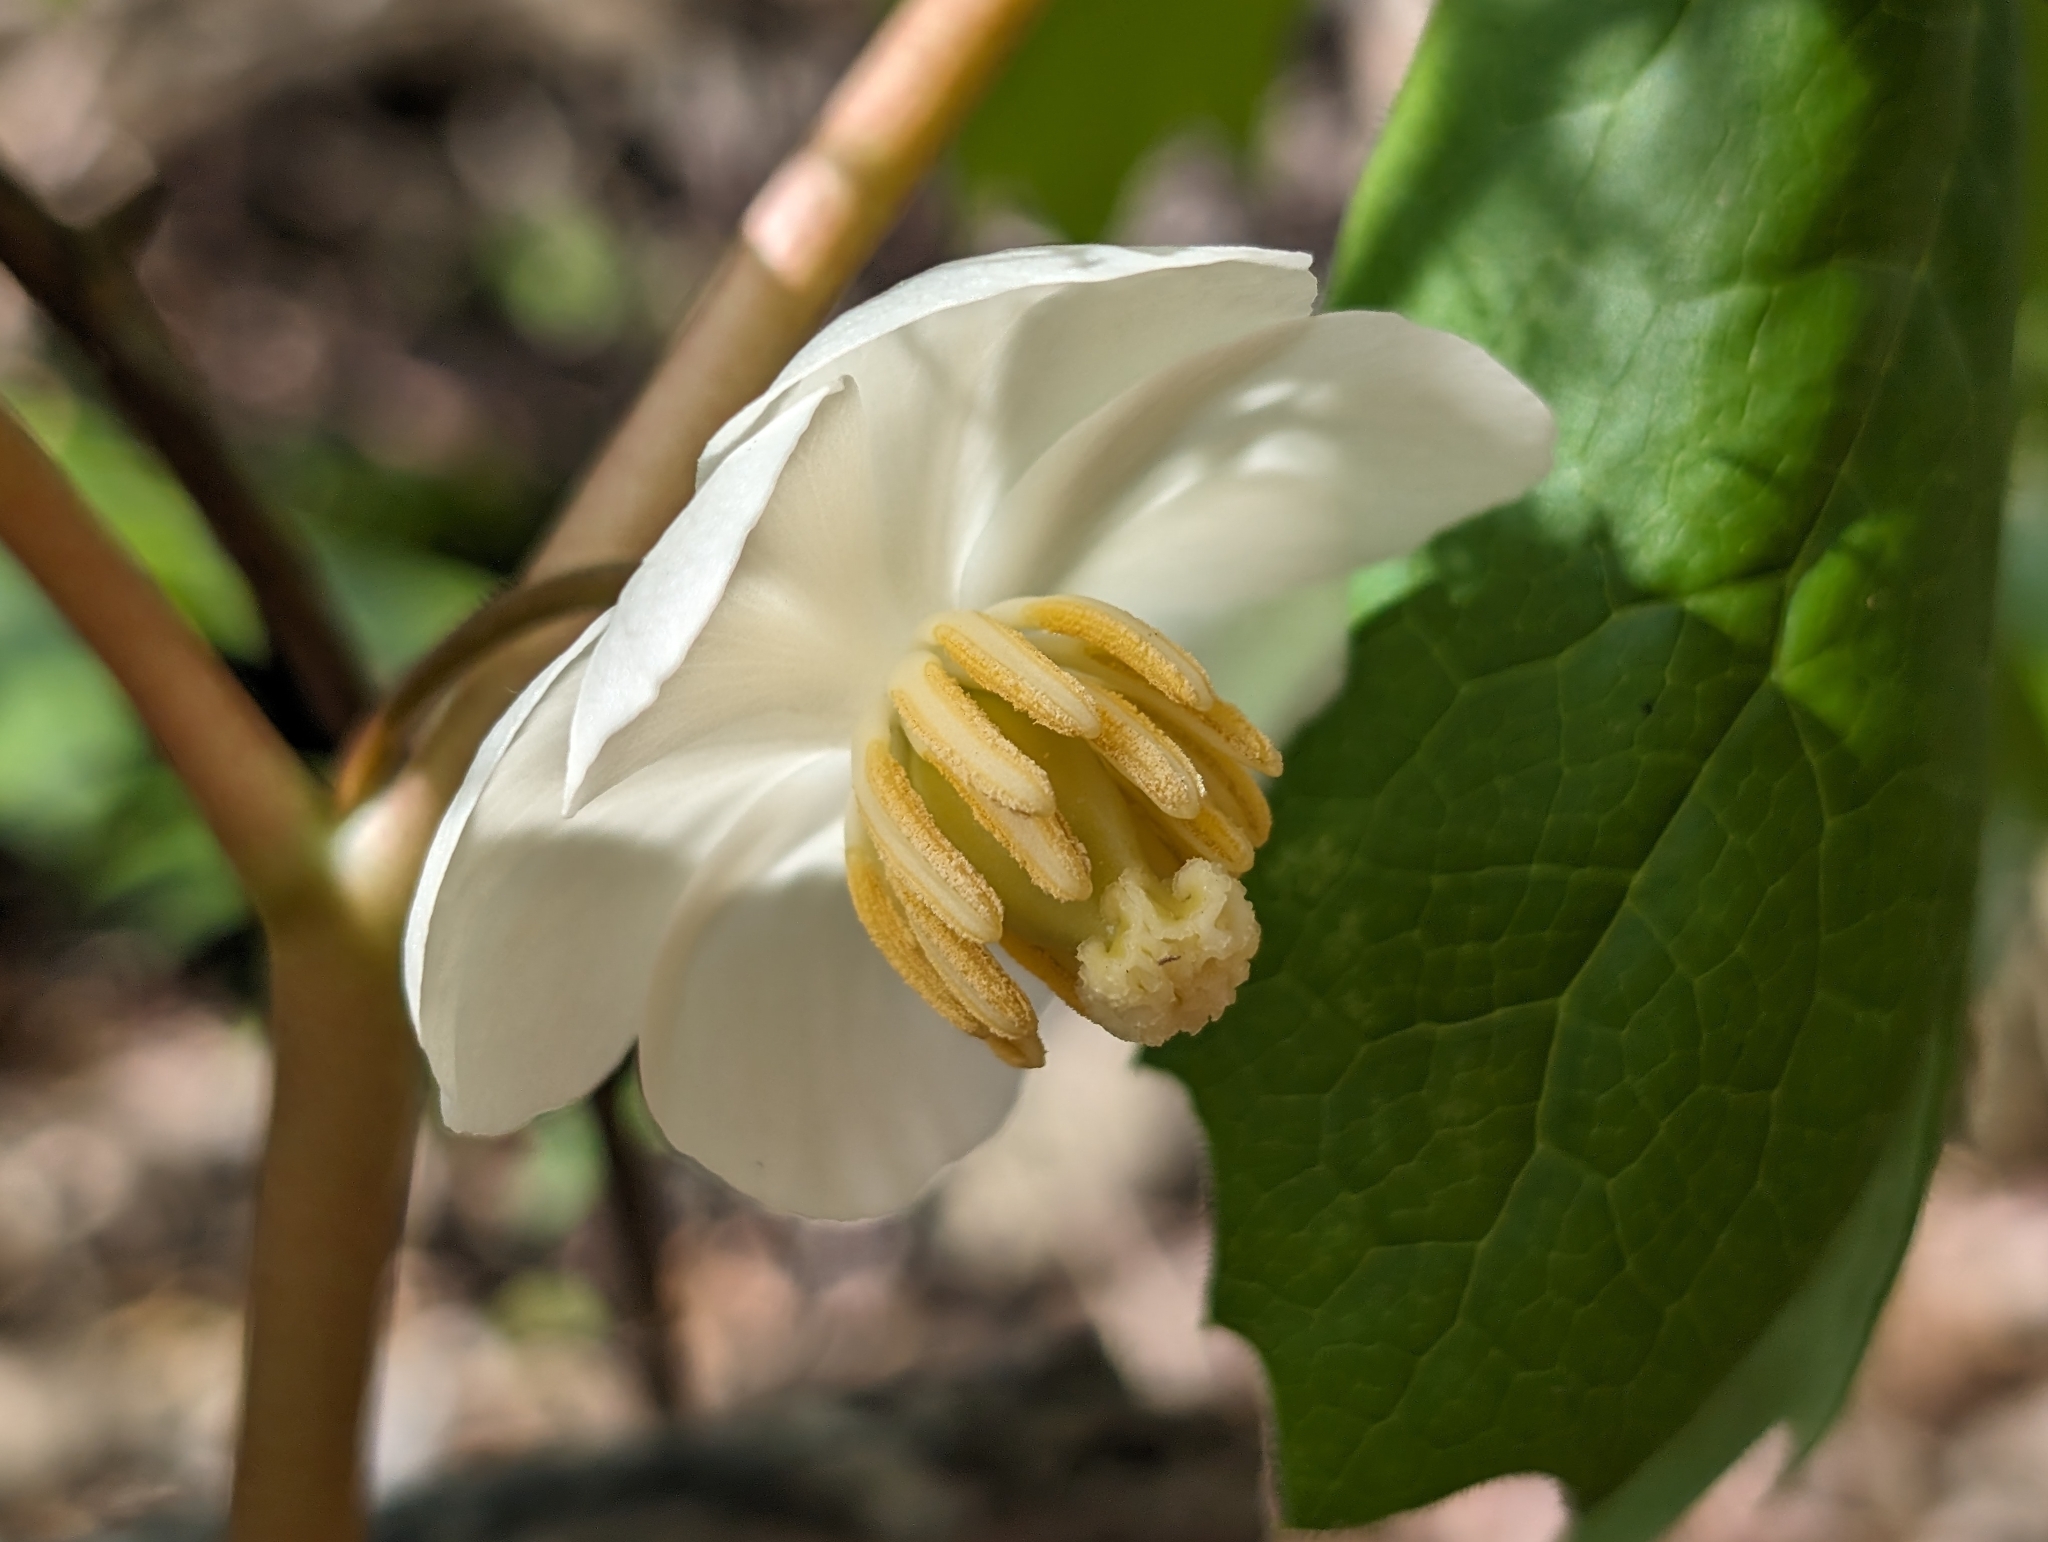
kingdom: Plantae
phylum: Tracheophyta
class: Magnoliopsida
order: Ranunculales
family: Berberidaceae
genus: Podophyllum
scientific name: Podophyllum peltatum
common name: Wild mandrake
